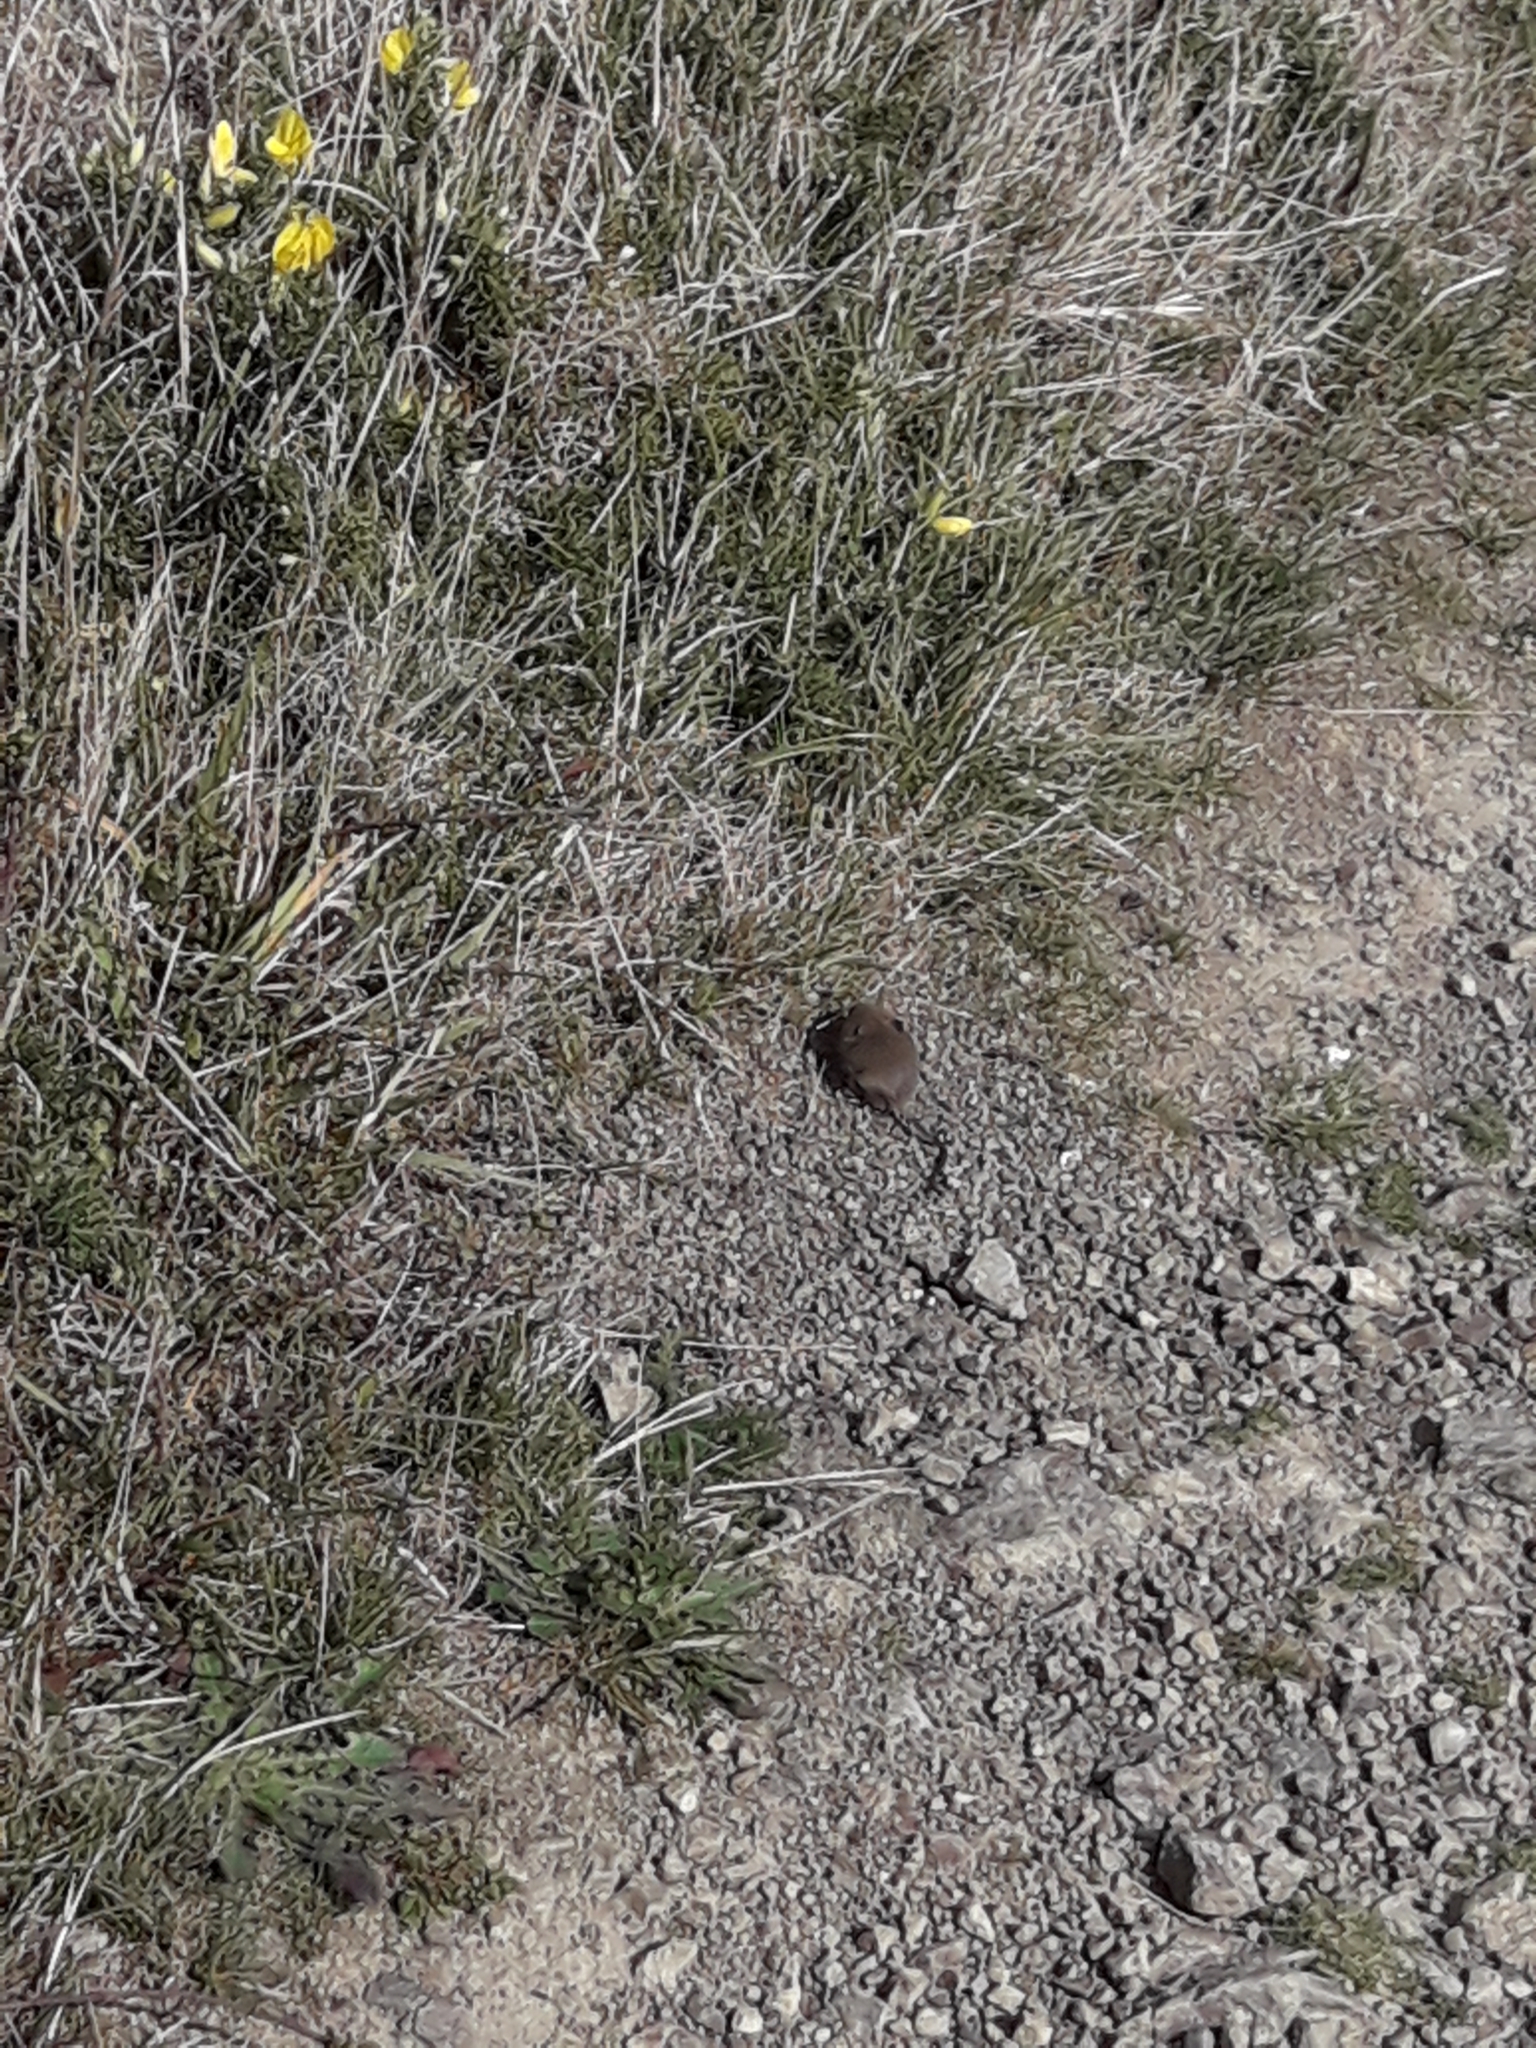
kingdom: Animalia
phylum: Chordata
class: Mammalia
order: Rodentia
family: Muridae
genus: Mus
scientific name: Mus musculus
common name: House mouse
